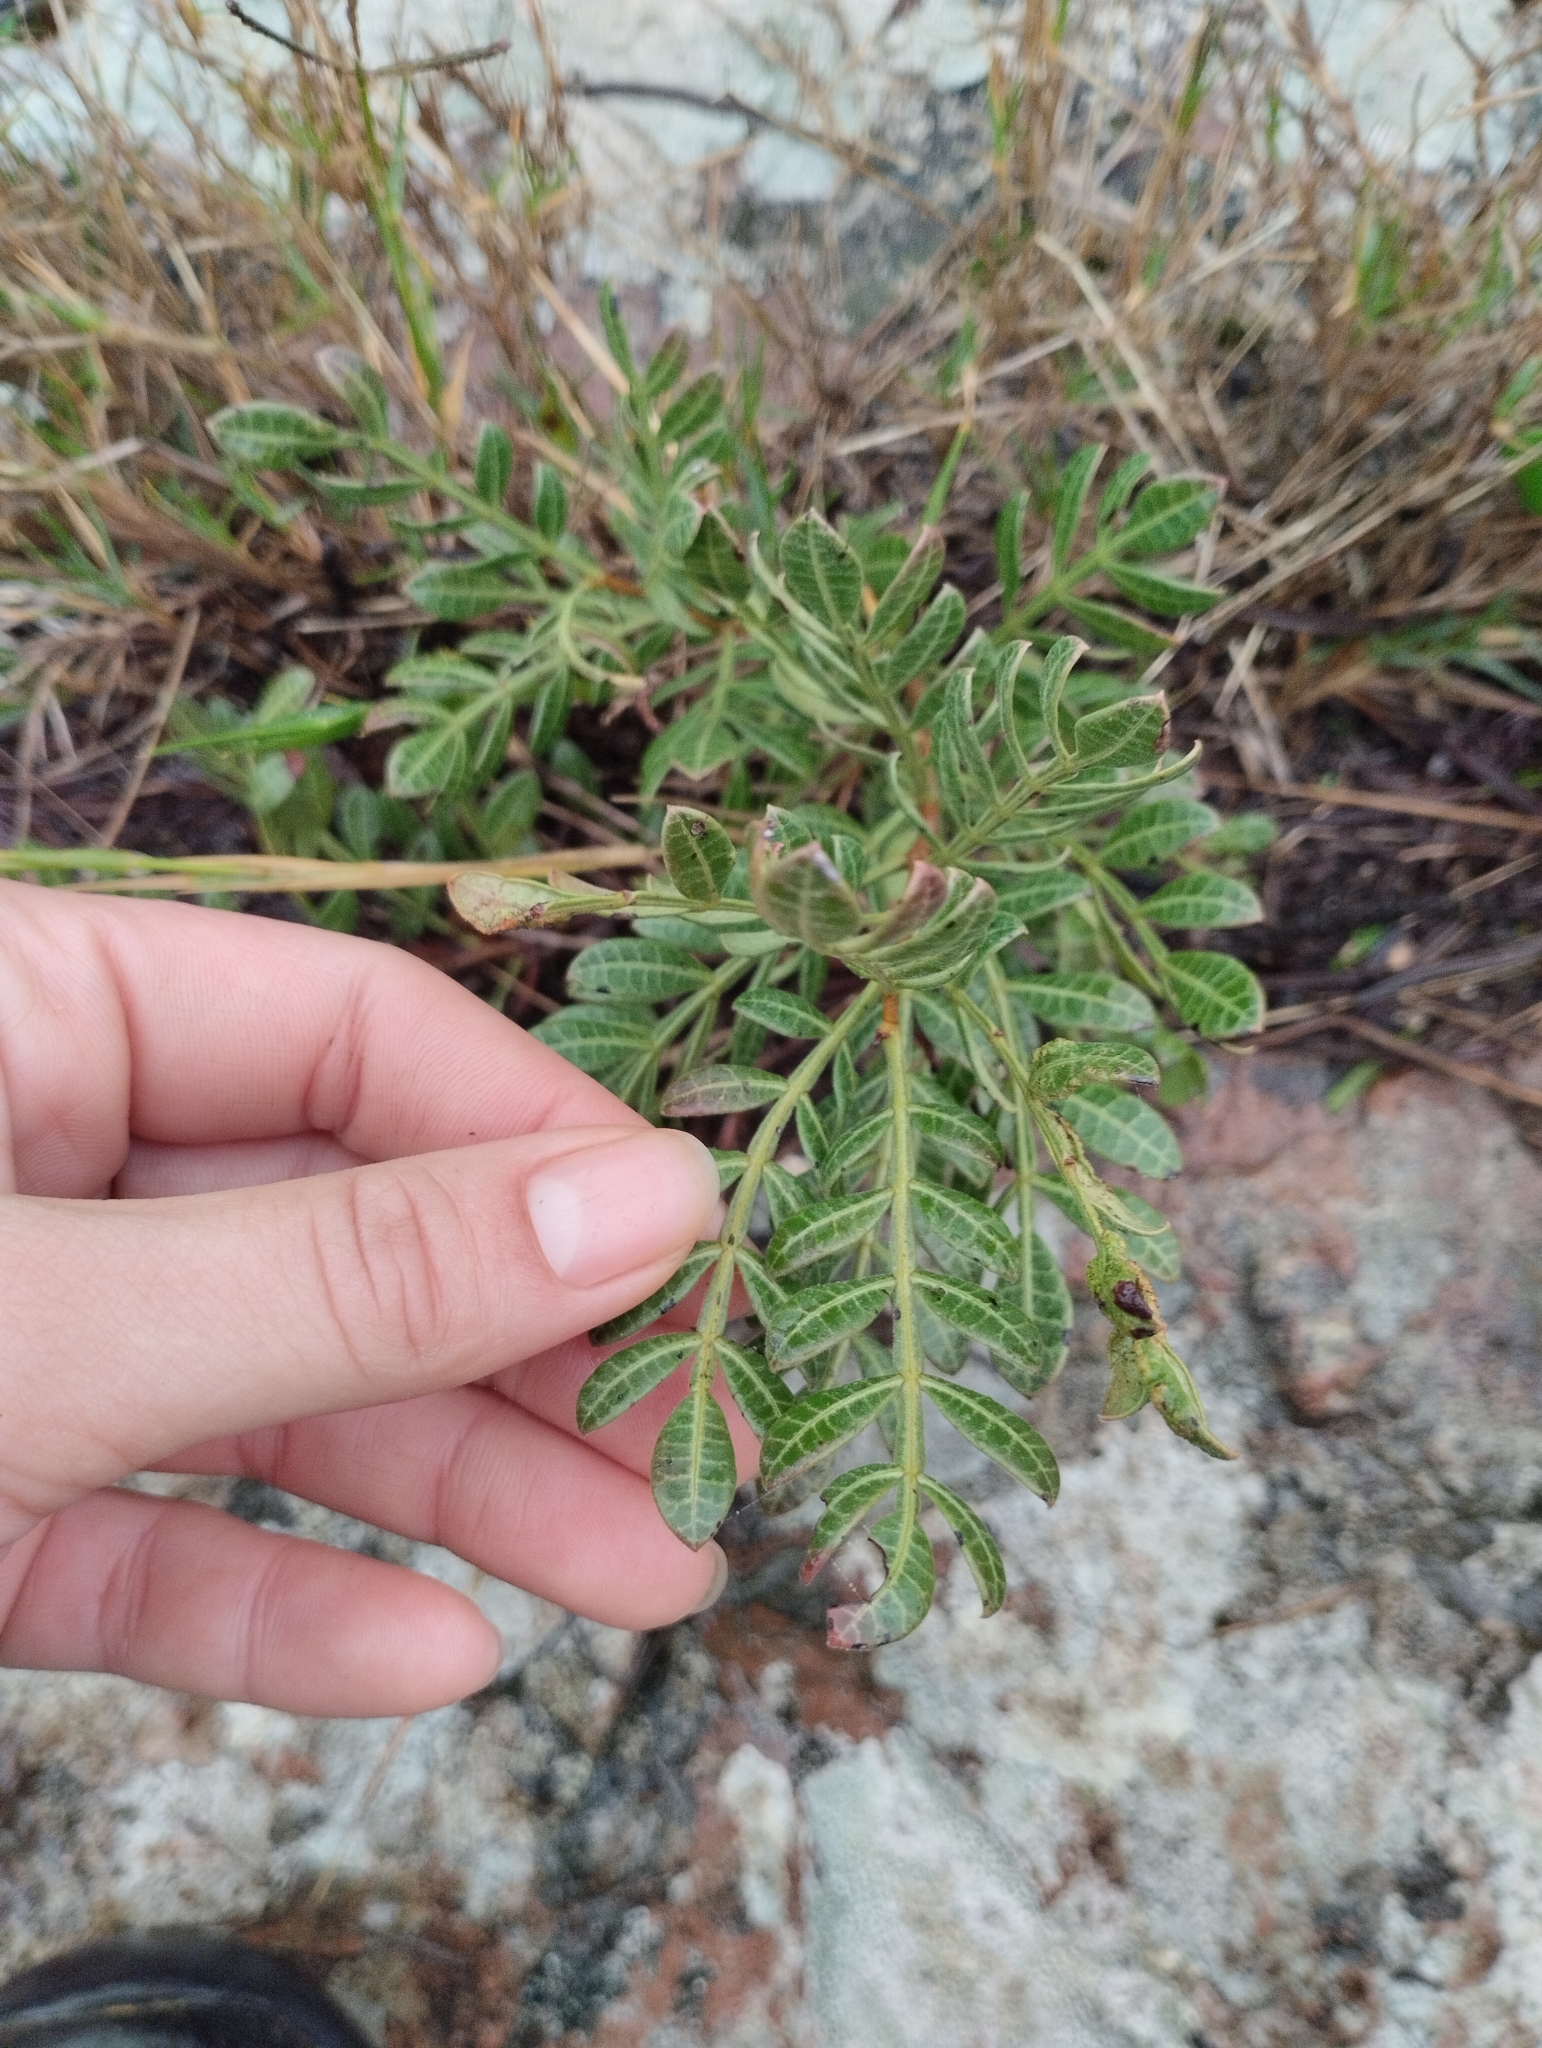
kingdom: Plantae
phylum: Tracheophyta
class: Magnoliopsida
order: Sapindales
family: Anacardiaceae
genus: Schinus
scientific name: Schinus lentiscifolia
